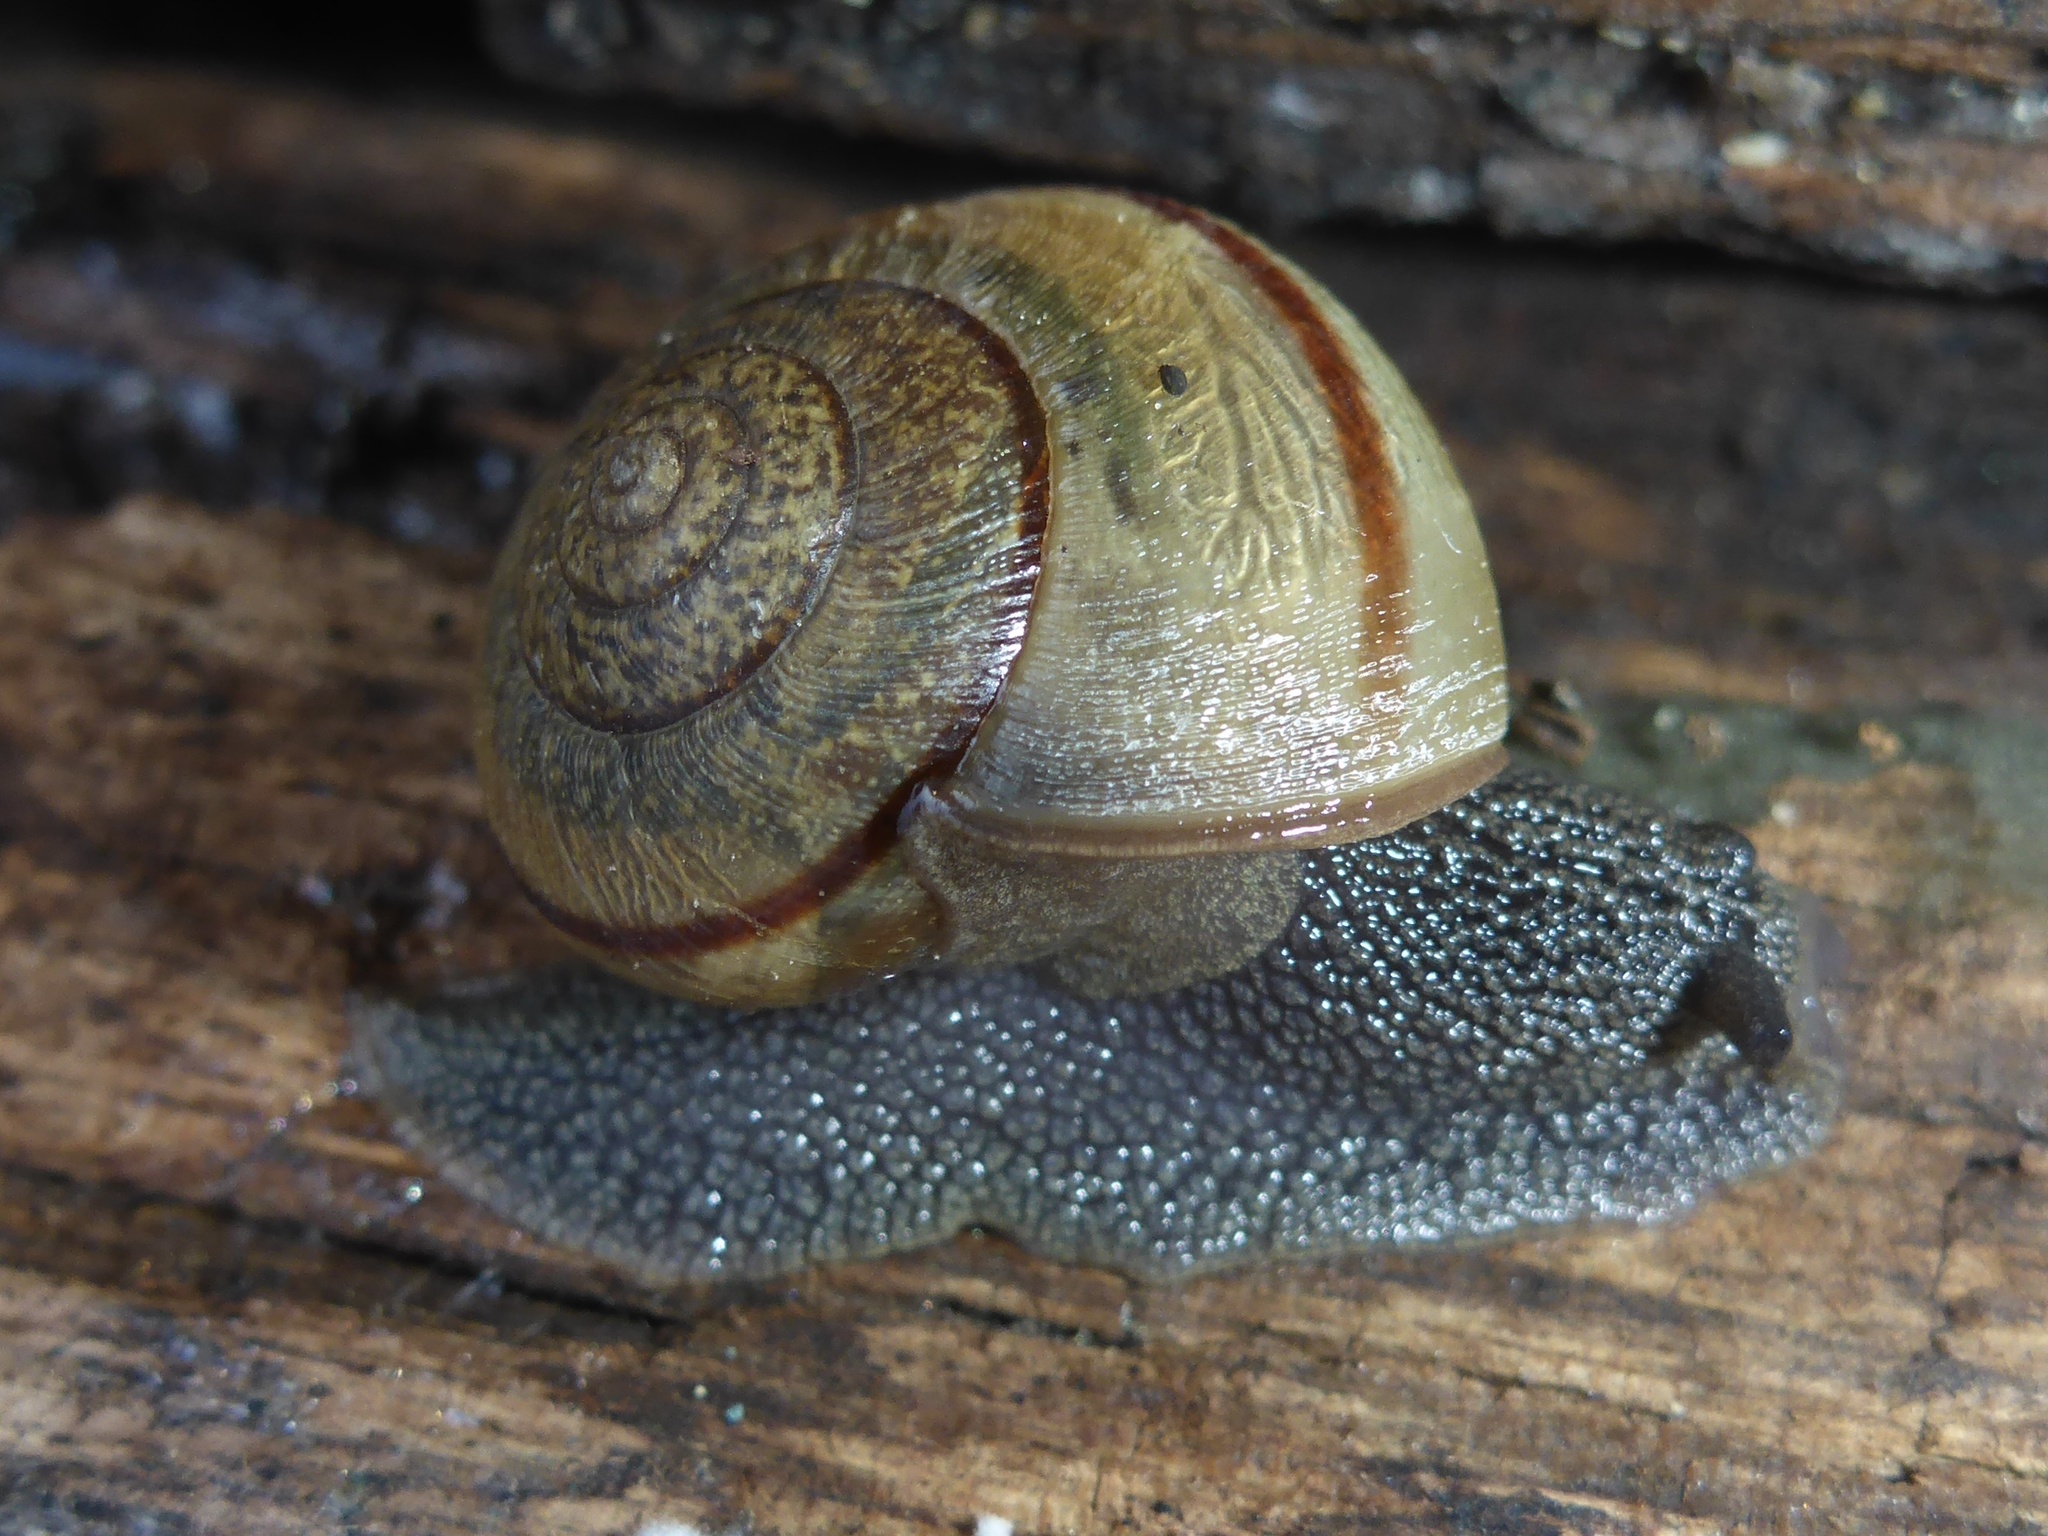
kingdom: Animalia
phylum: Mollusca
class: Gastropoda
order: Stylommatophora
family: Xanthonychidae
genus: Helminthoglypta
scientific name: Helminthoglypta nickliniana
